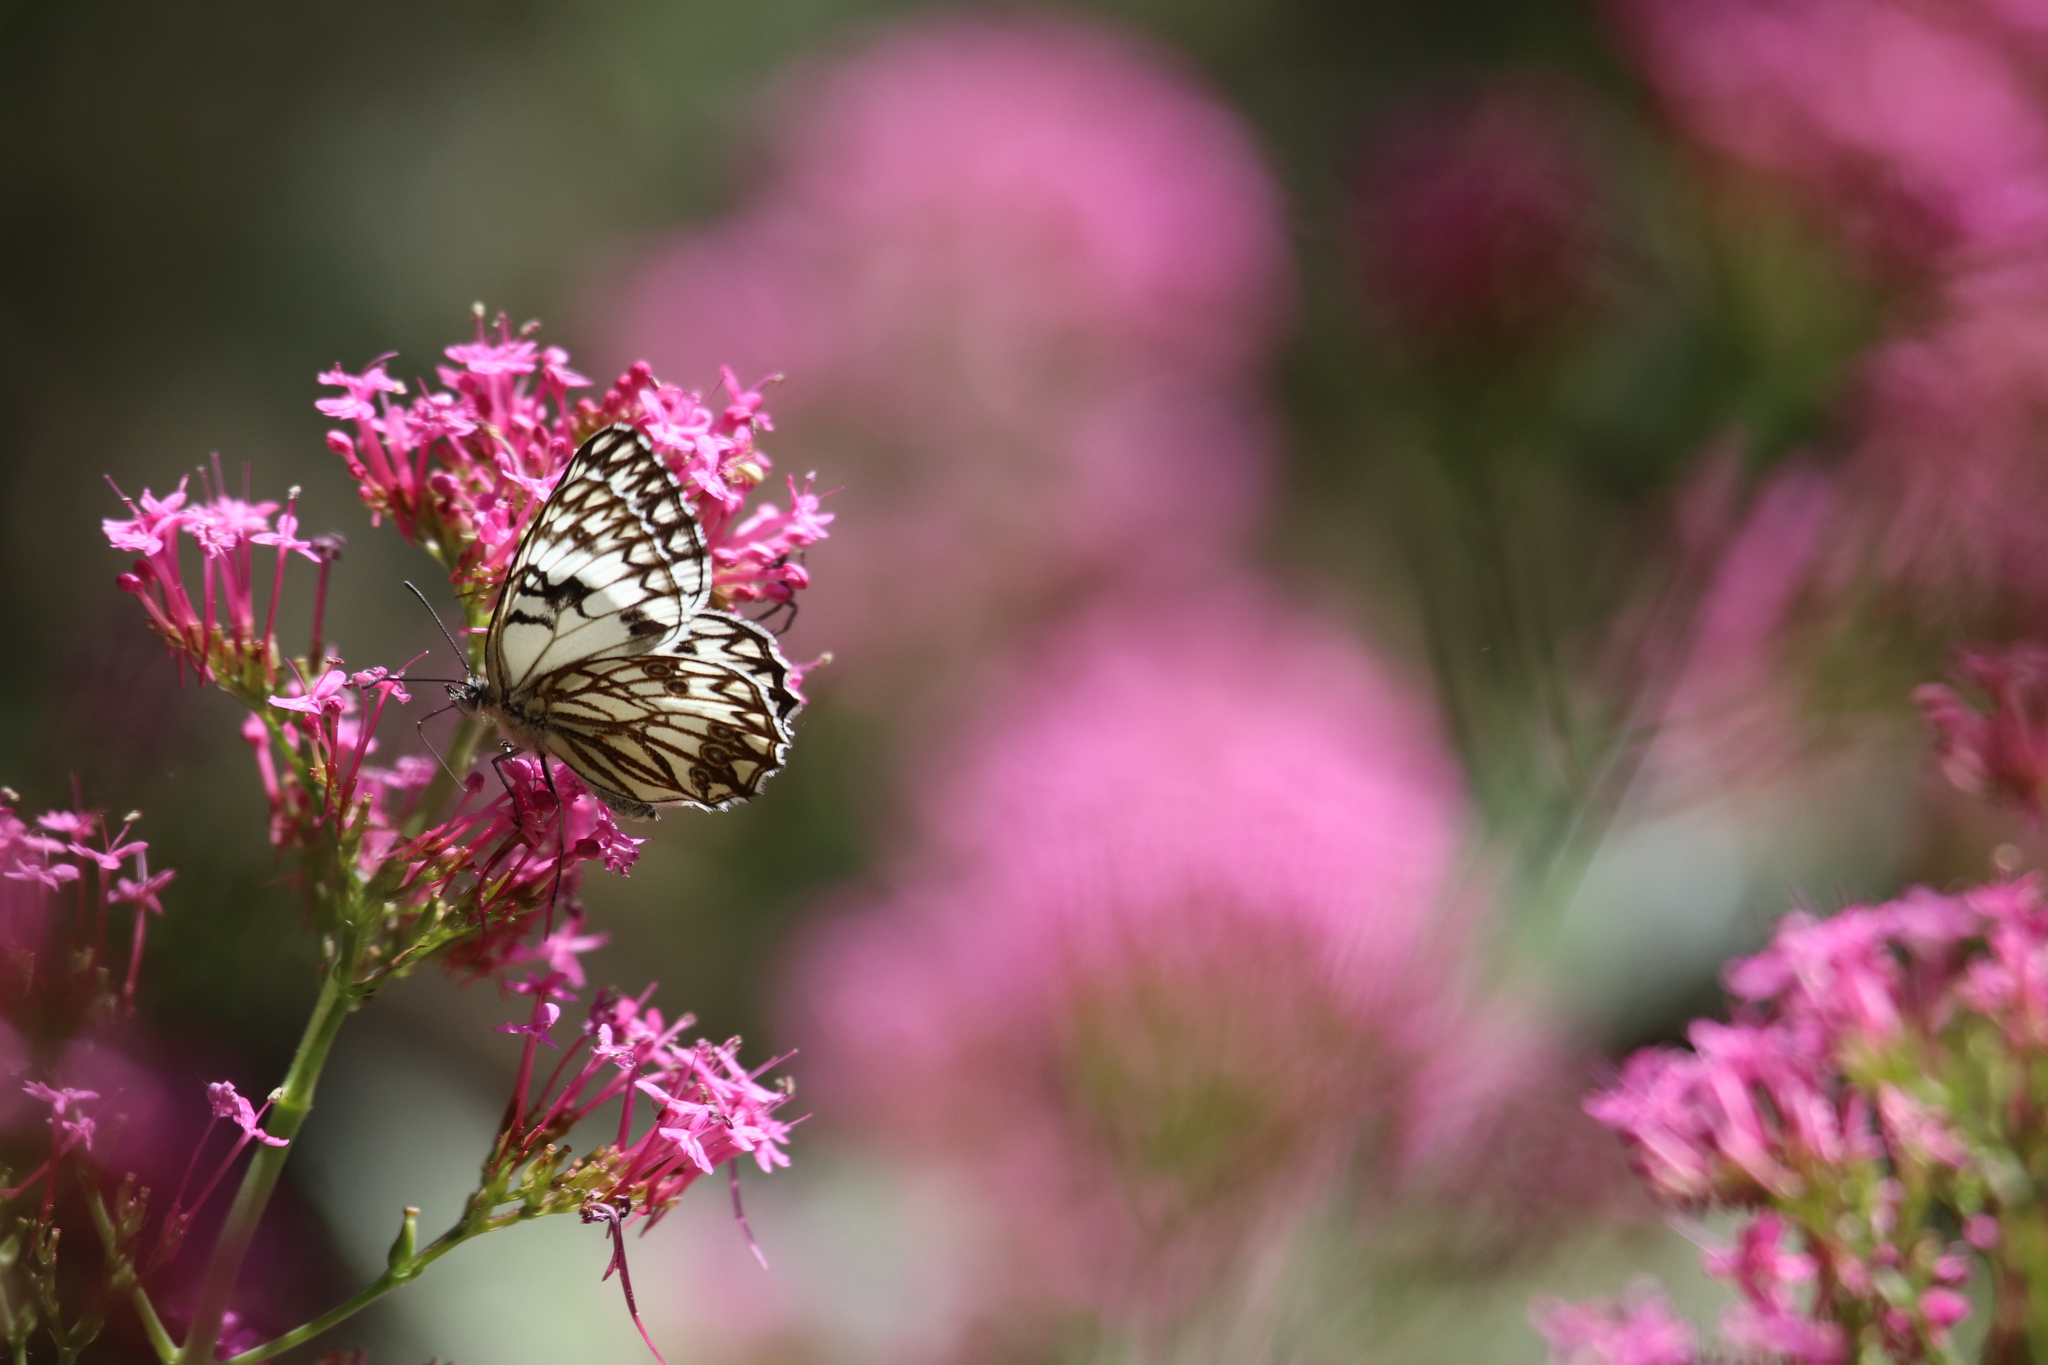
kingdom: Animalia
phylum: Arthropoda
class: Insecta
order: Lepidoptera
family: Nymphalidae
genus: Melanargia
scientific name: Melanargia occitanica
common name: Western marbled white
